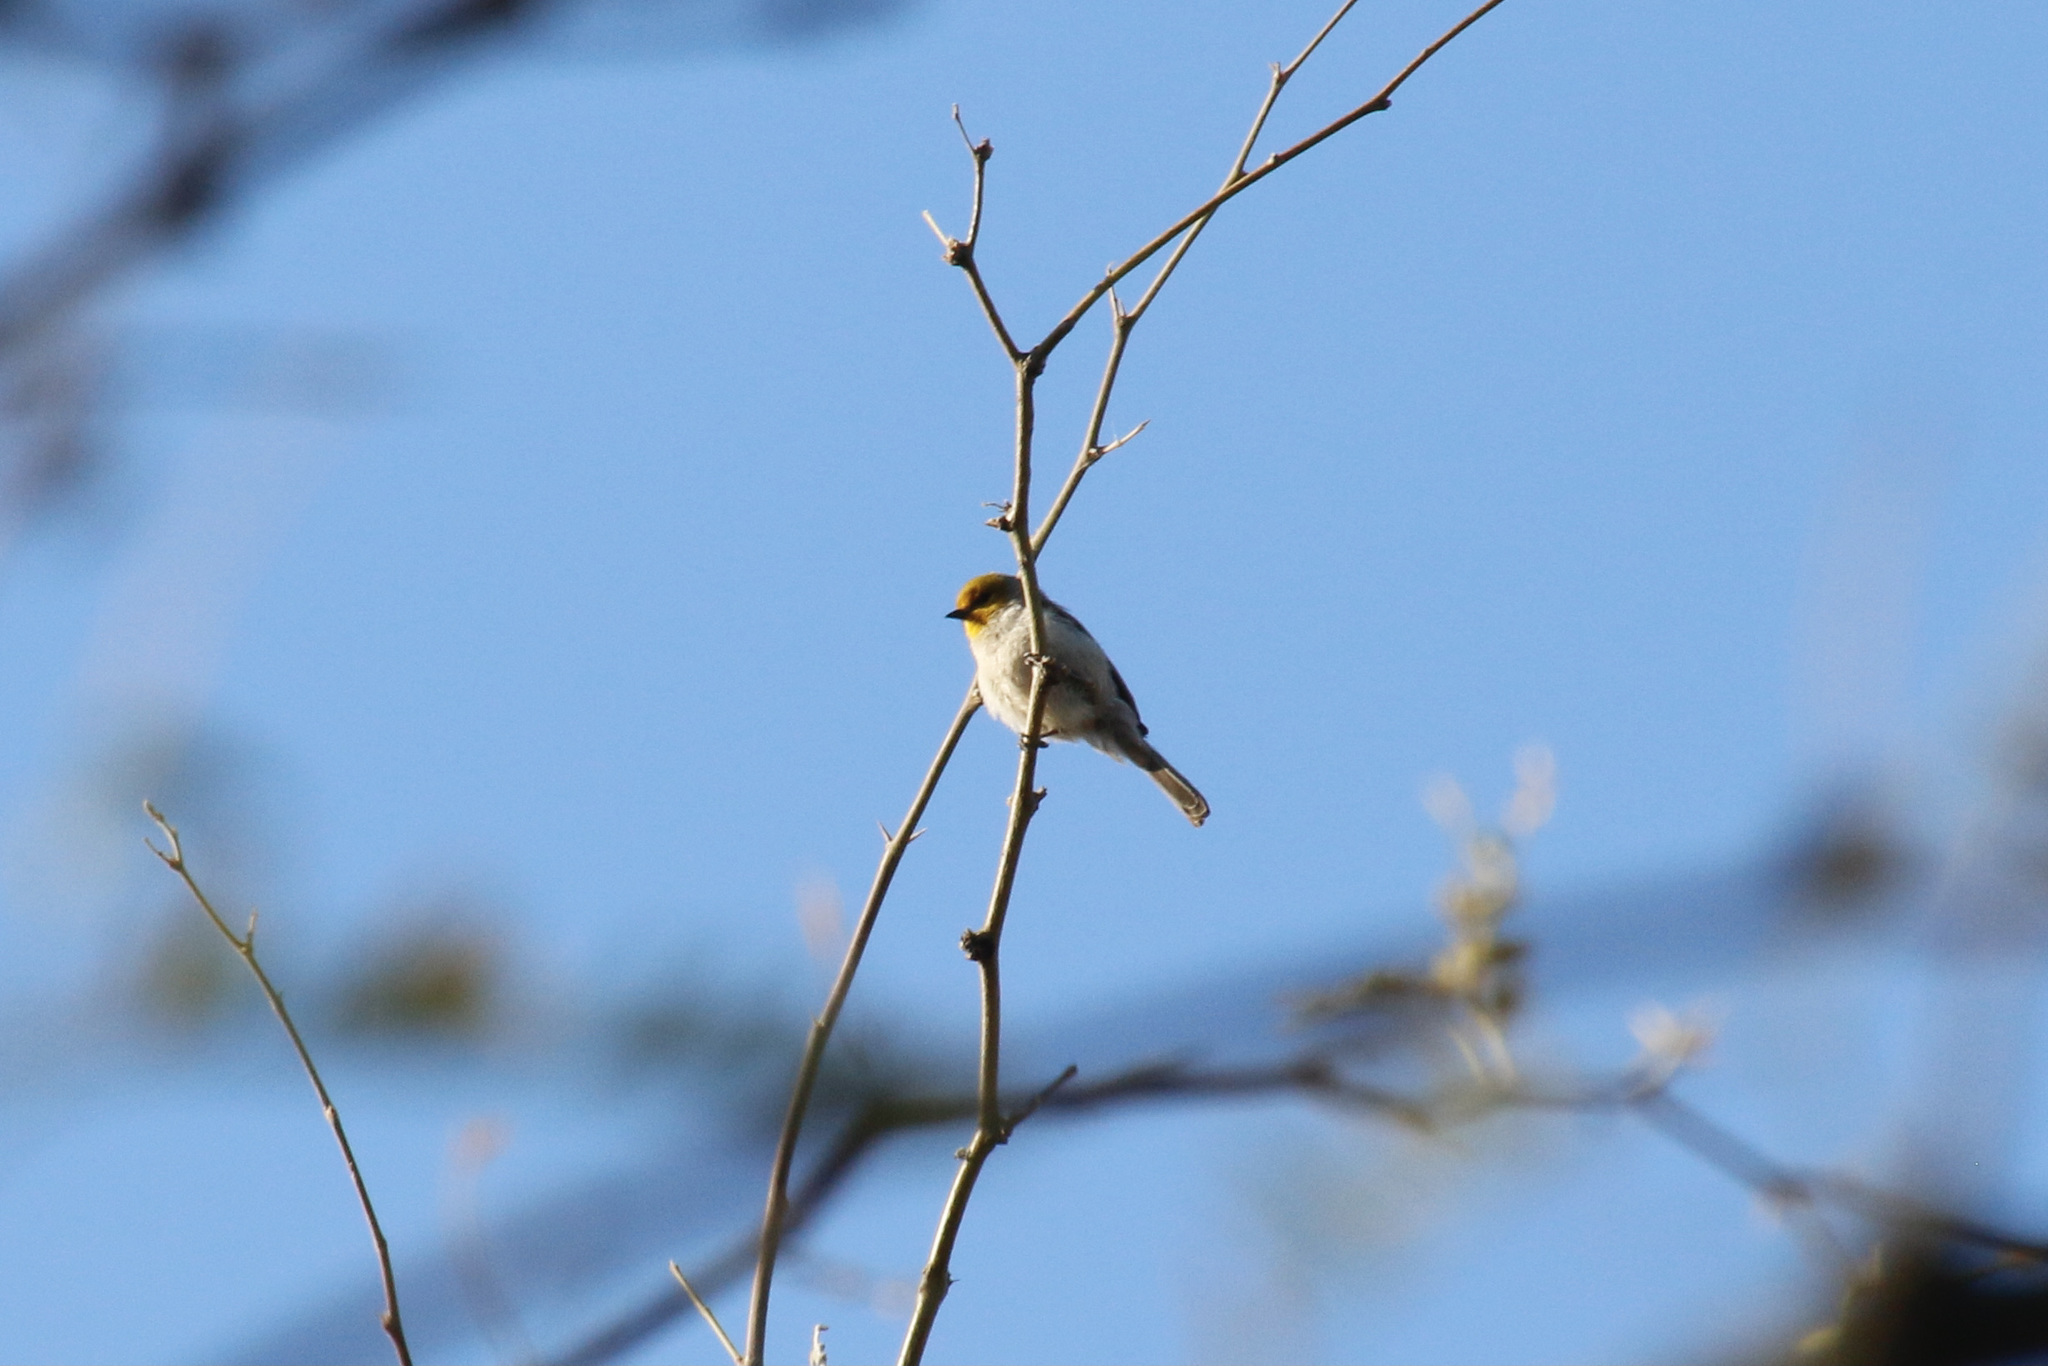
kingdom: Animalia
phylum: Chordata
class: Aves
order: Passeriformes
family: Remizidae
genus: Auriparus
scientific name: Auriparus flaviceps
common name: Verdin
